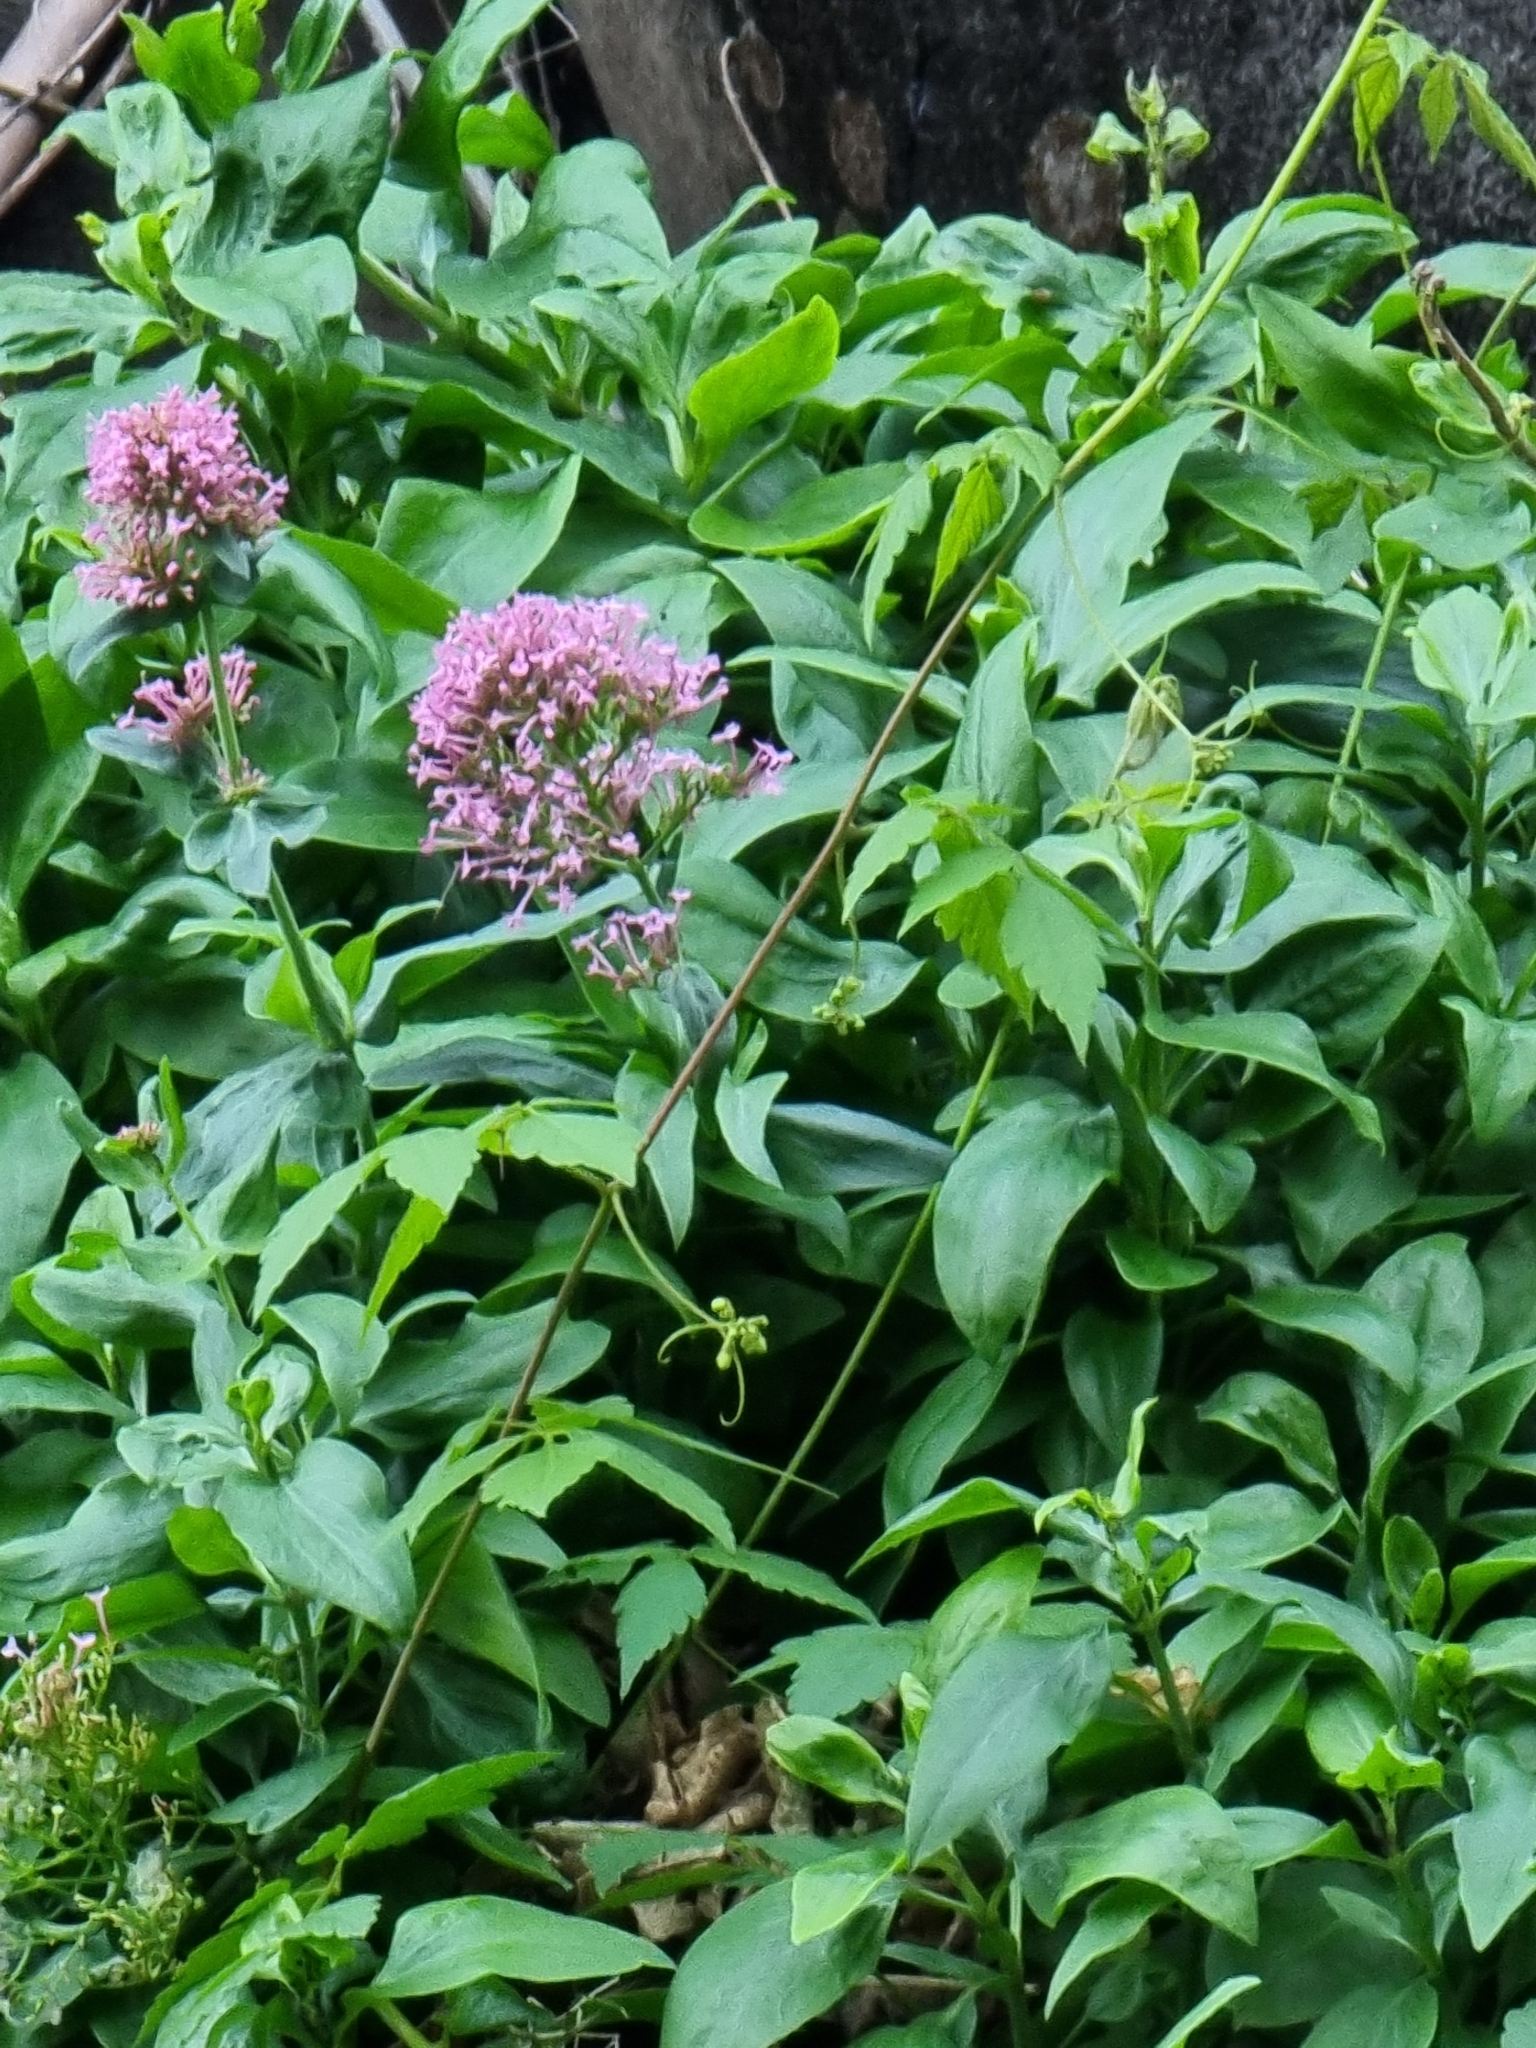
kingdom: Plantae
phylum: Tracheophyta
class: Magnoliopsida
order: Dipsacales
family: Caprifoliaceae
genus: Centranthus
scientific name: Centranthus ruber
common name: Red valerian
